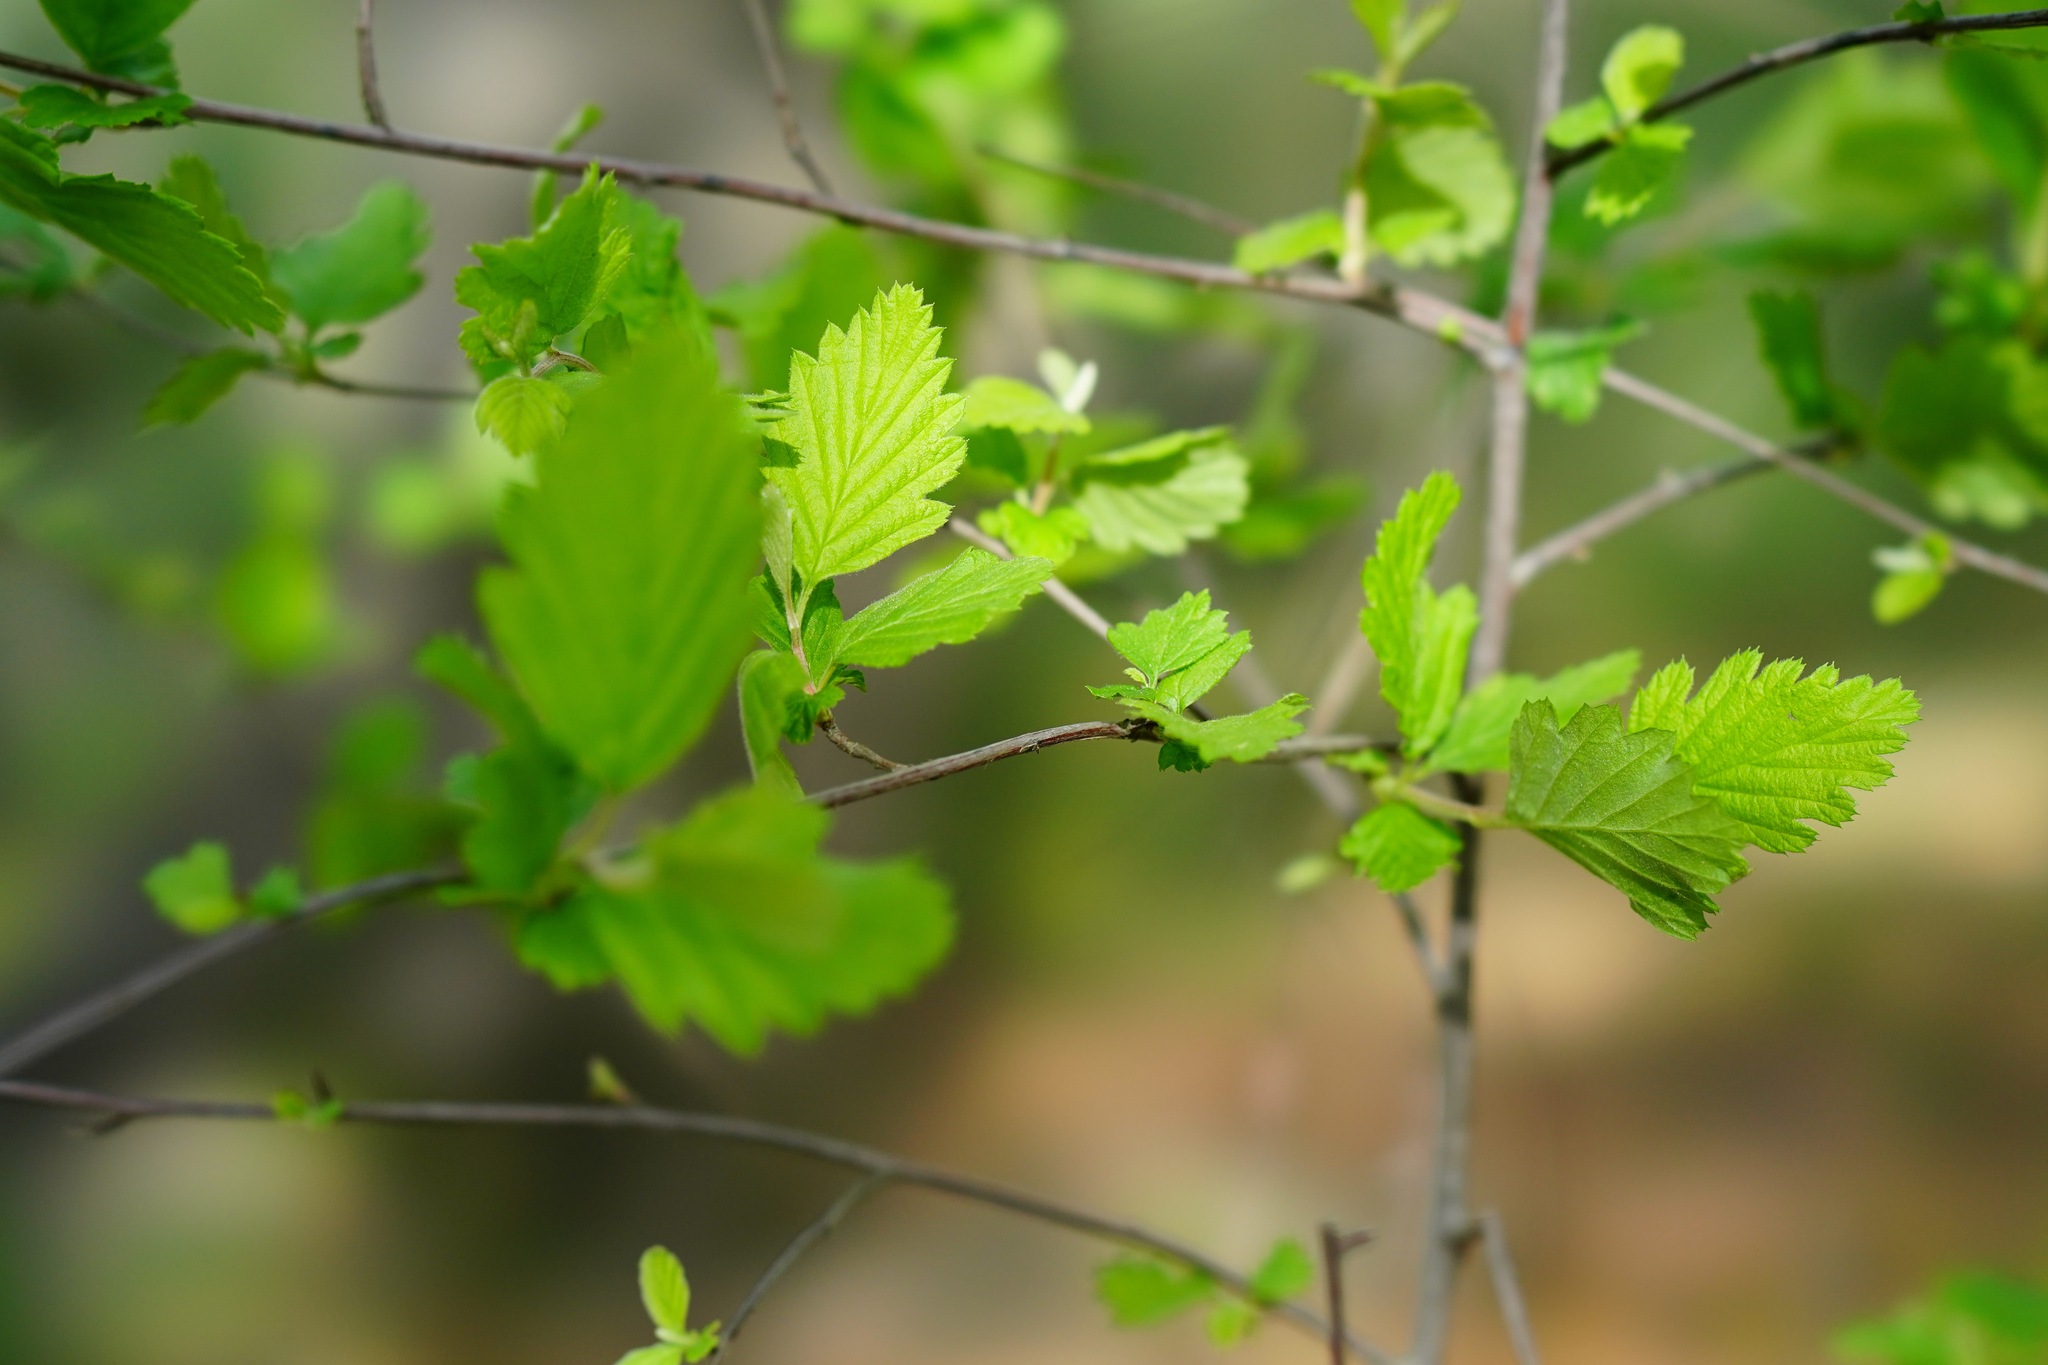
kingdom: Plantae
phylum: Tracheophyta
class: Magnoliopsida
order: Rosales
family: Rosaceae
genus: Holodiscus
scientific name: Holodiscus discolor
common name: Oceanspray
